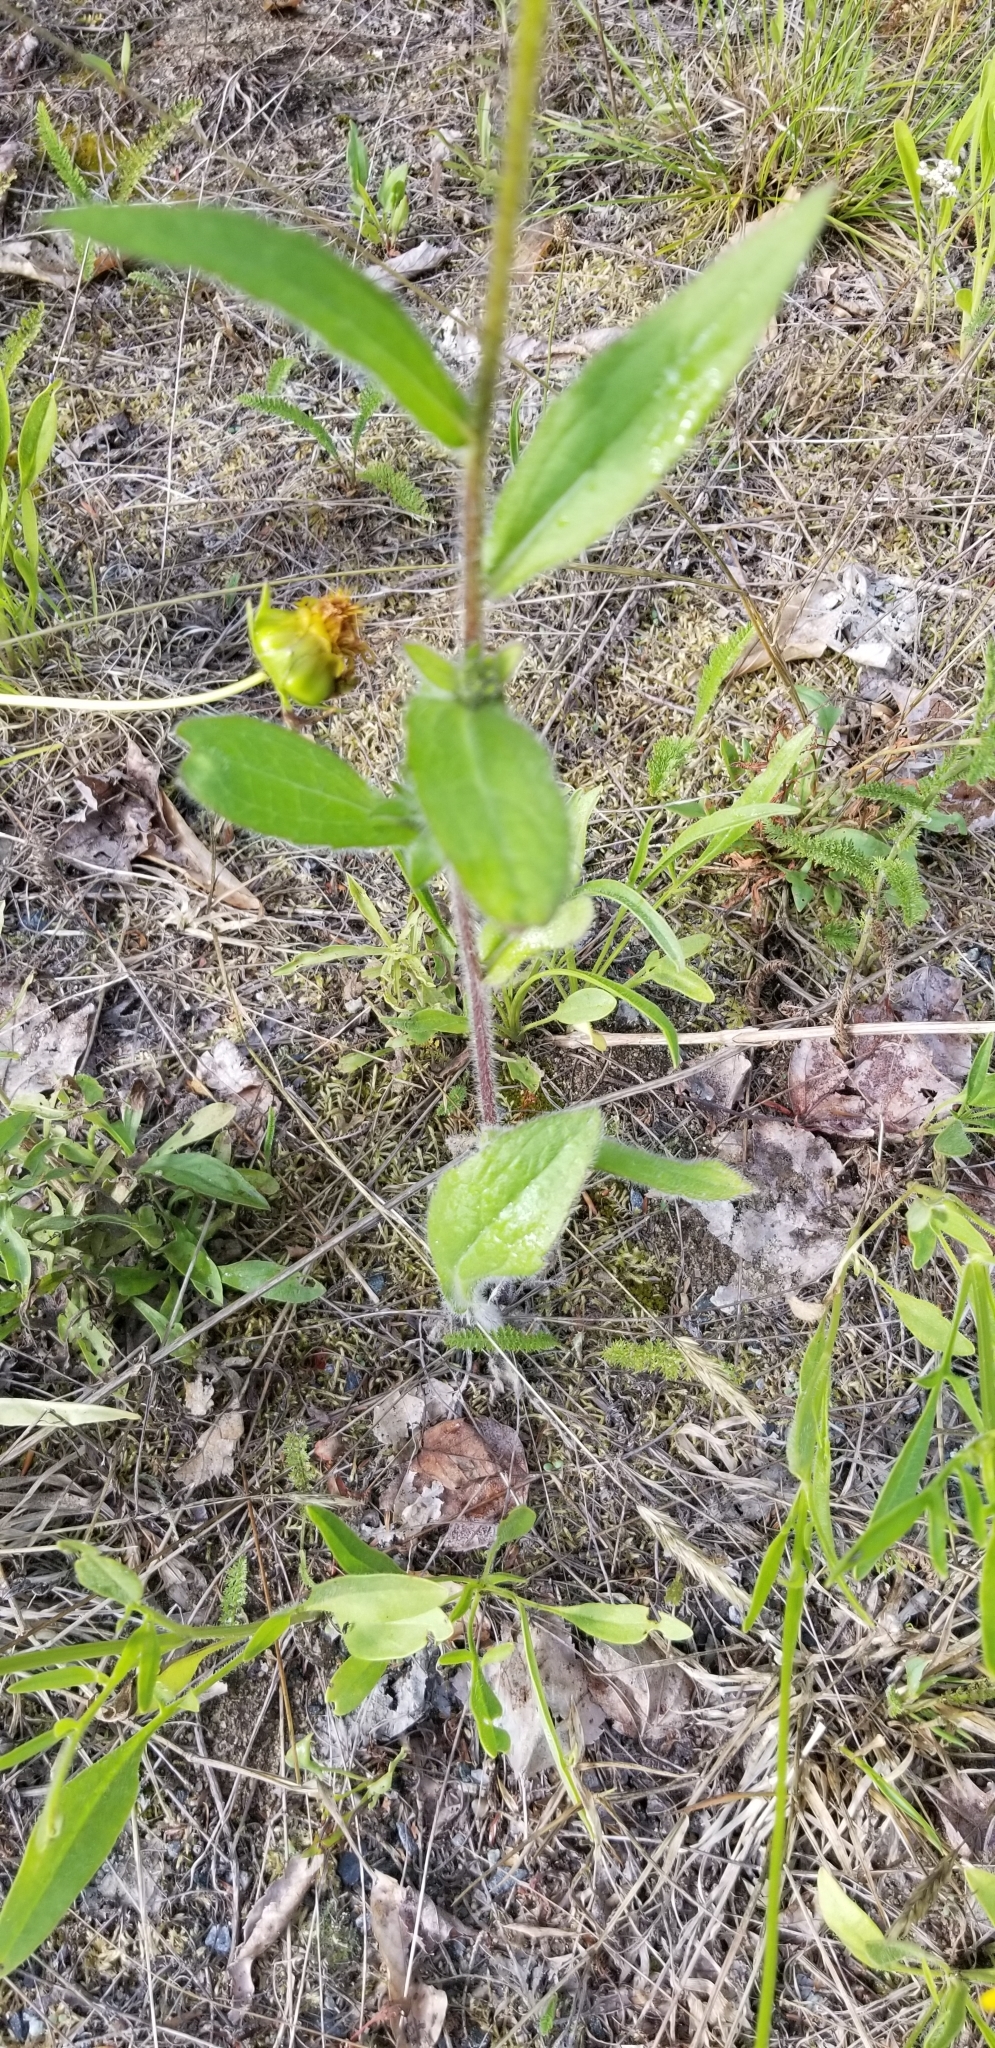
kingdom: Plantae
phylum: Tracheophyta
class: Magnoliopsida
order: Asterales
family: Asteraceae
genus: Gaillardia
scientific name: Gaillardia pulchella
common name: Firewheel
